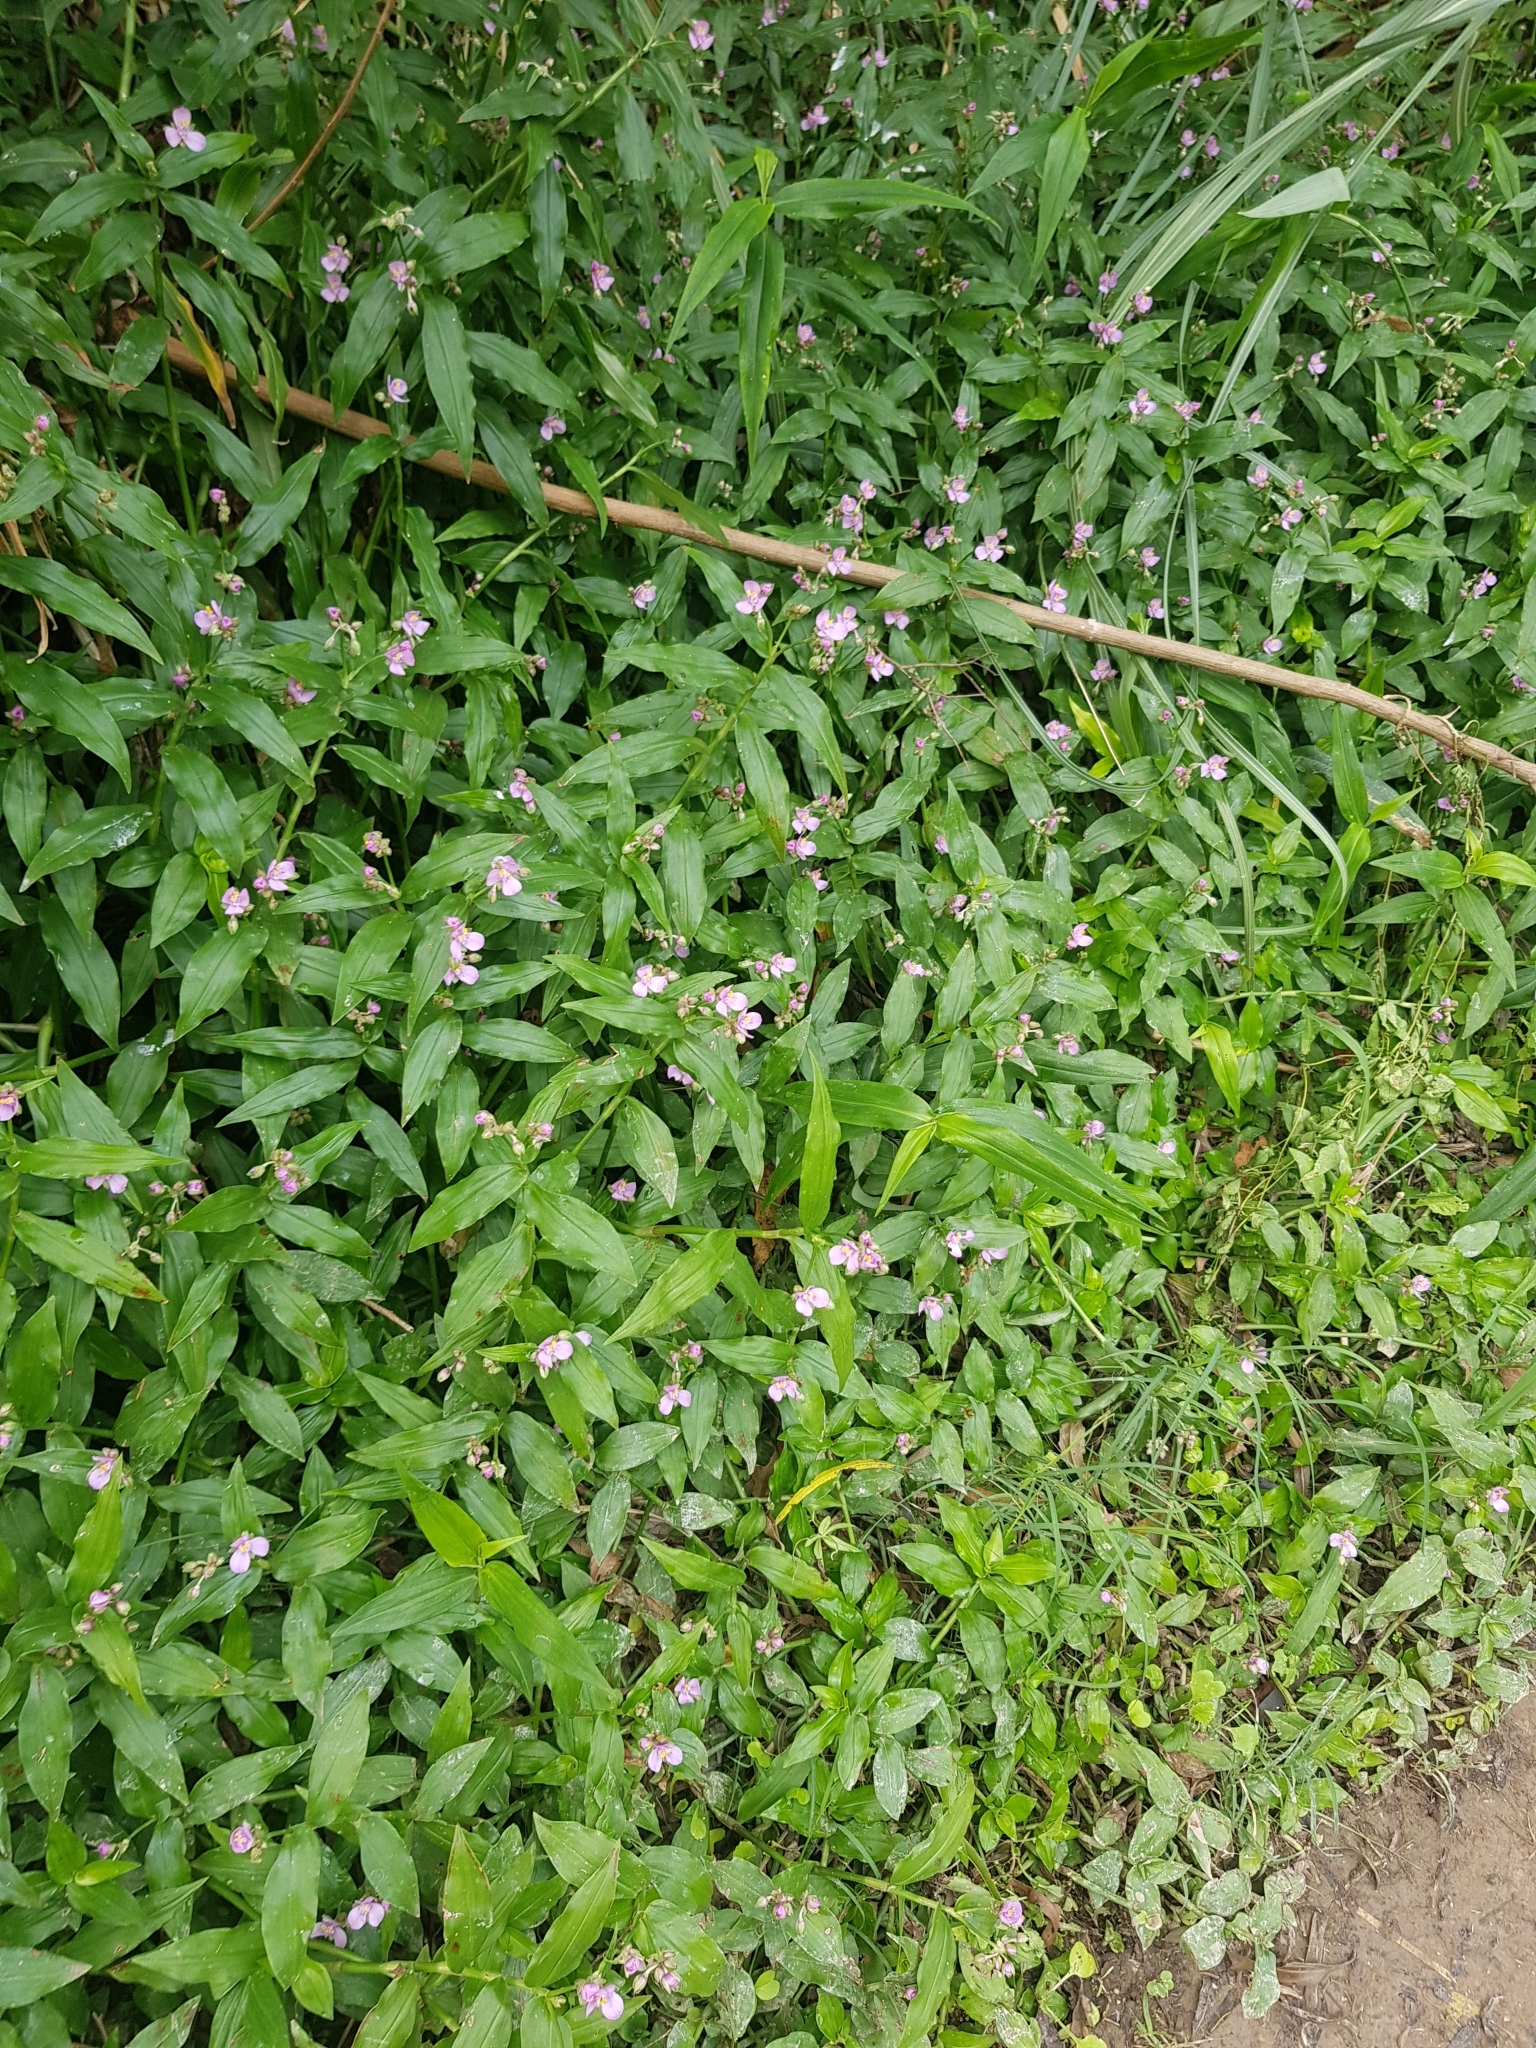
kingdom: Plantae
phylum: Tracheophyta
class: Liliopsida
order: Commelinales
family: Commelinaceae
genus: Callisia
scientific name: Callisia diuretica
